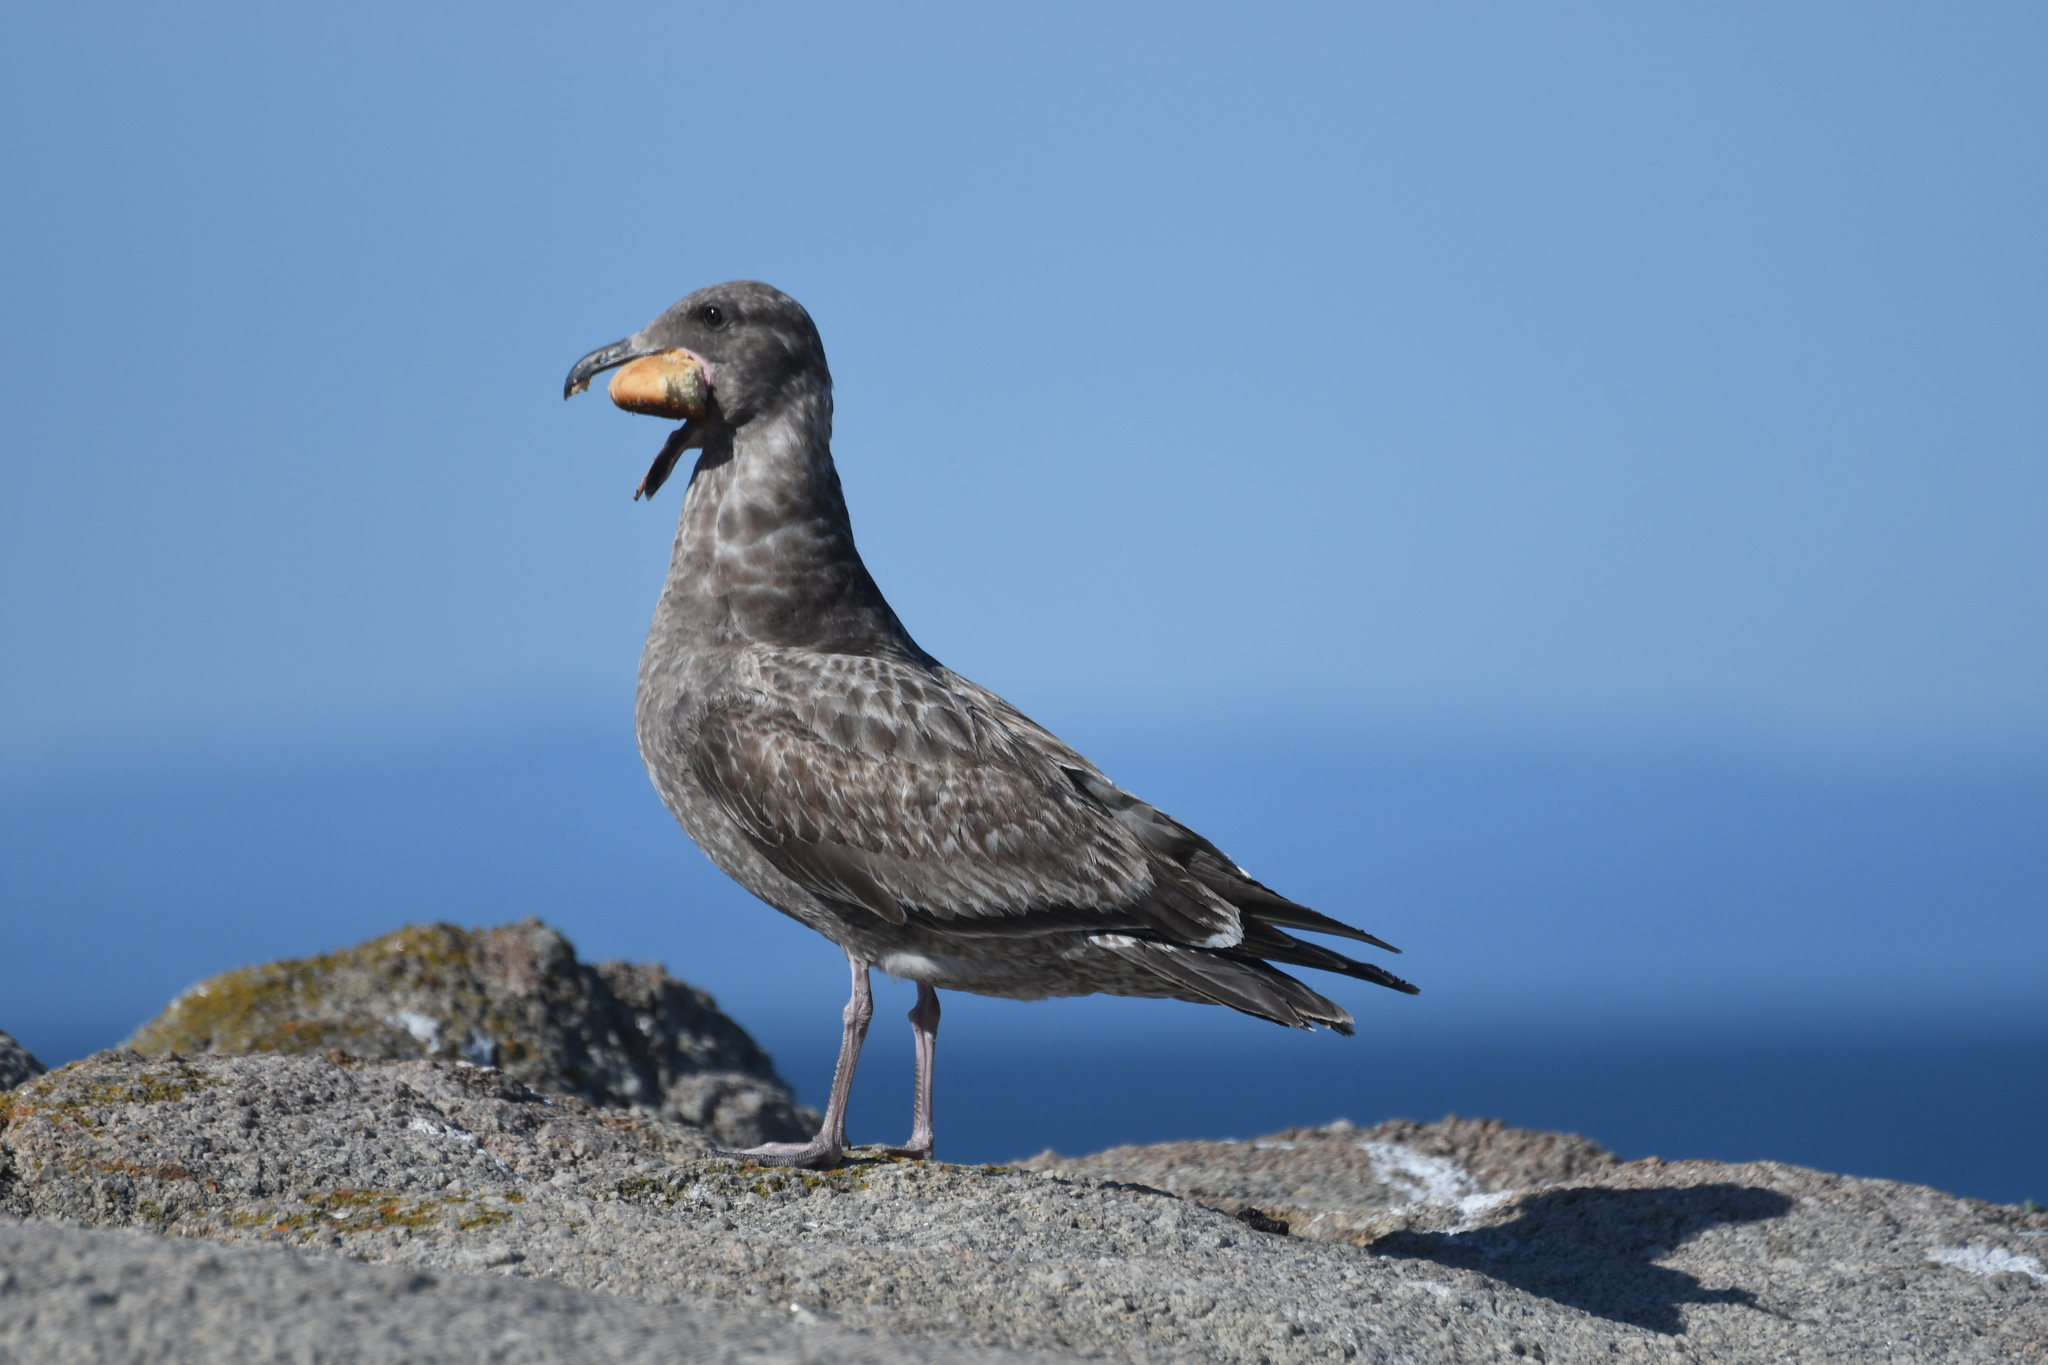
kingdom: Animalia
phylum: Chordata
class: Aves
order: Charadriiformes
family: Laridae
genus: Larus
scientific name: Larus occidentalis
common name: Western gull
